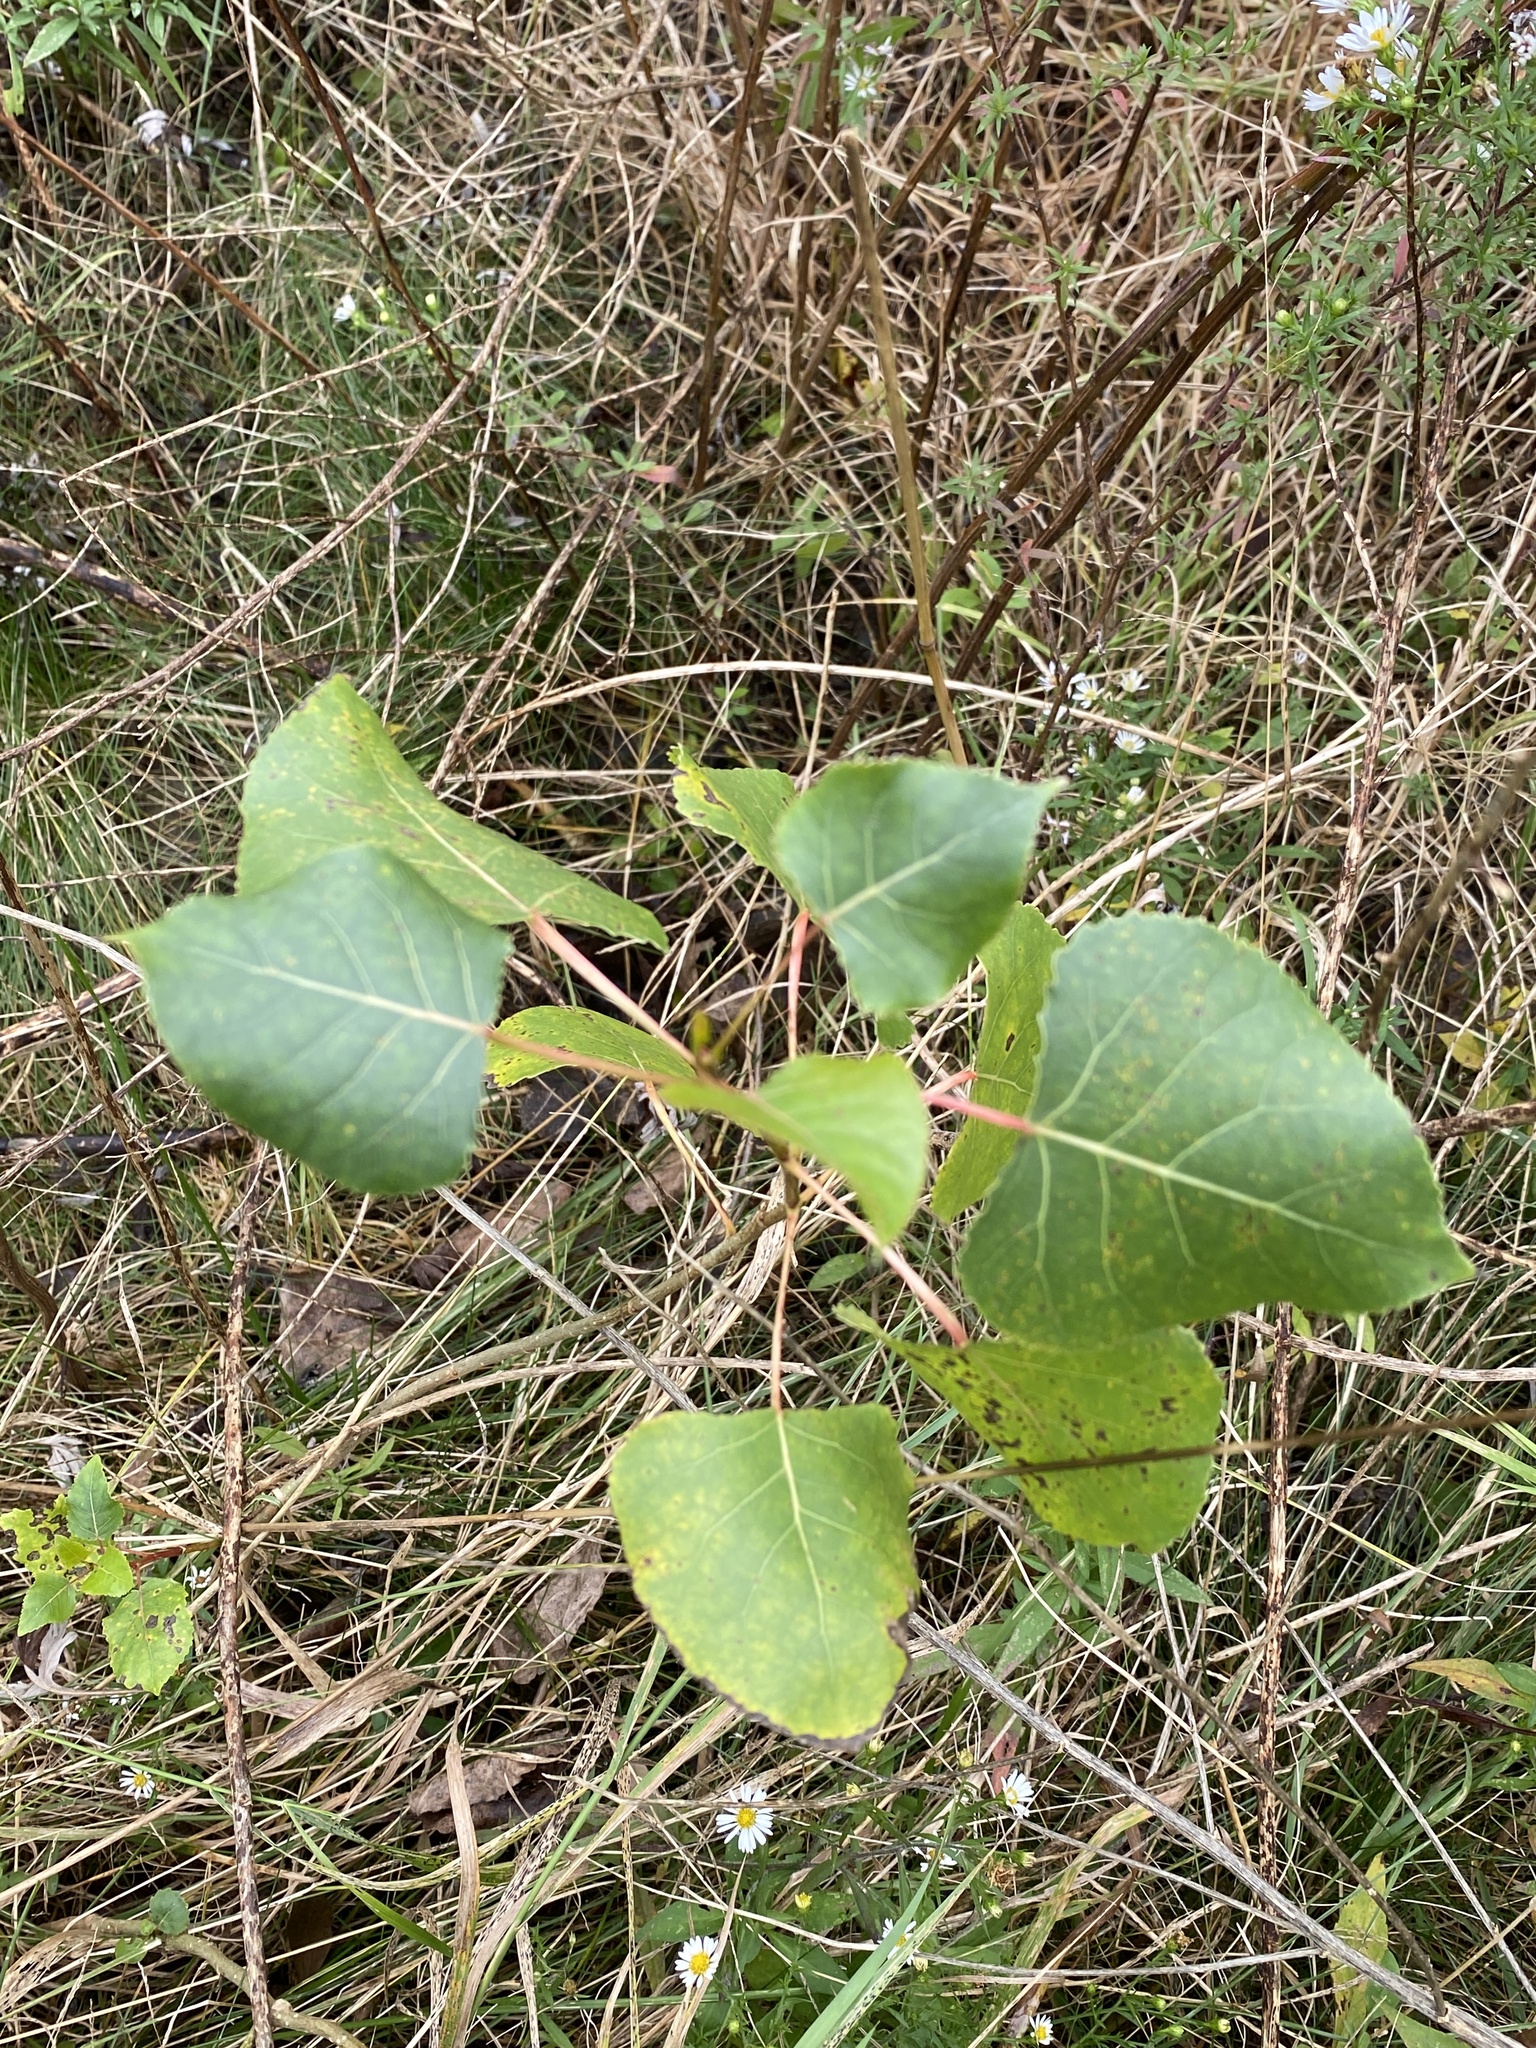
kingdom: Plantae
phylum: Tracheophyta
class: Magnoliopsida
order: Malpighiales
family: Salicaceae
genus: Populus
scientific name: Populus deltoides
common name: Eastern cottonwood
